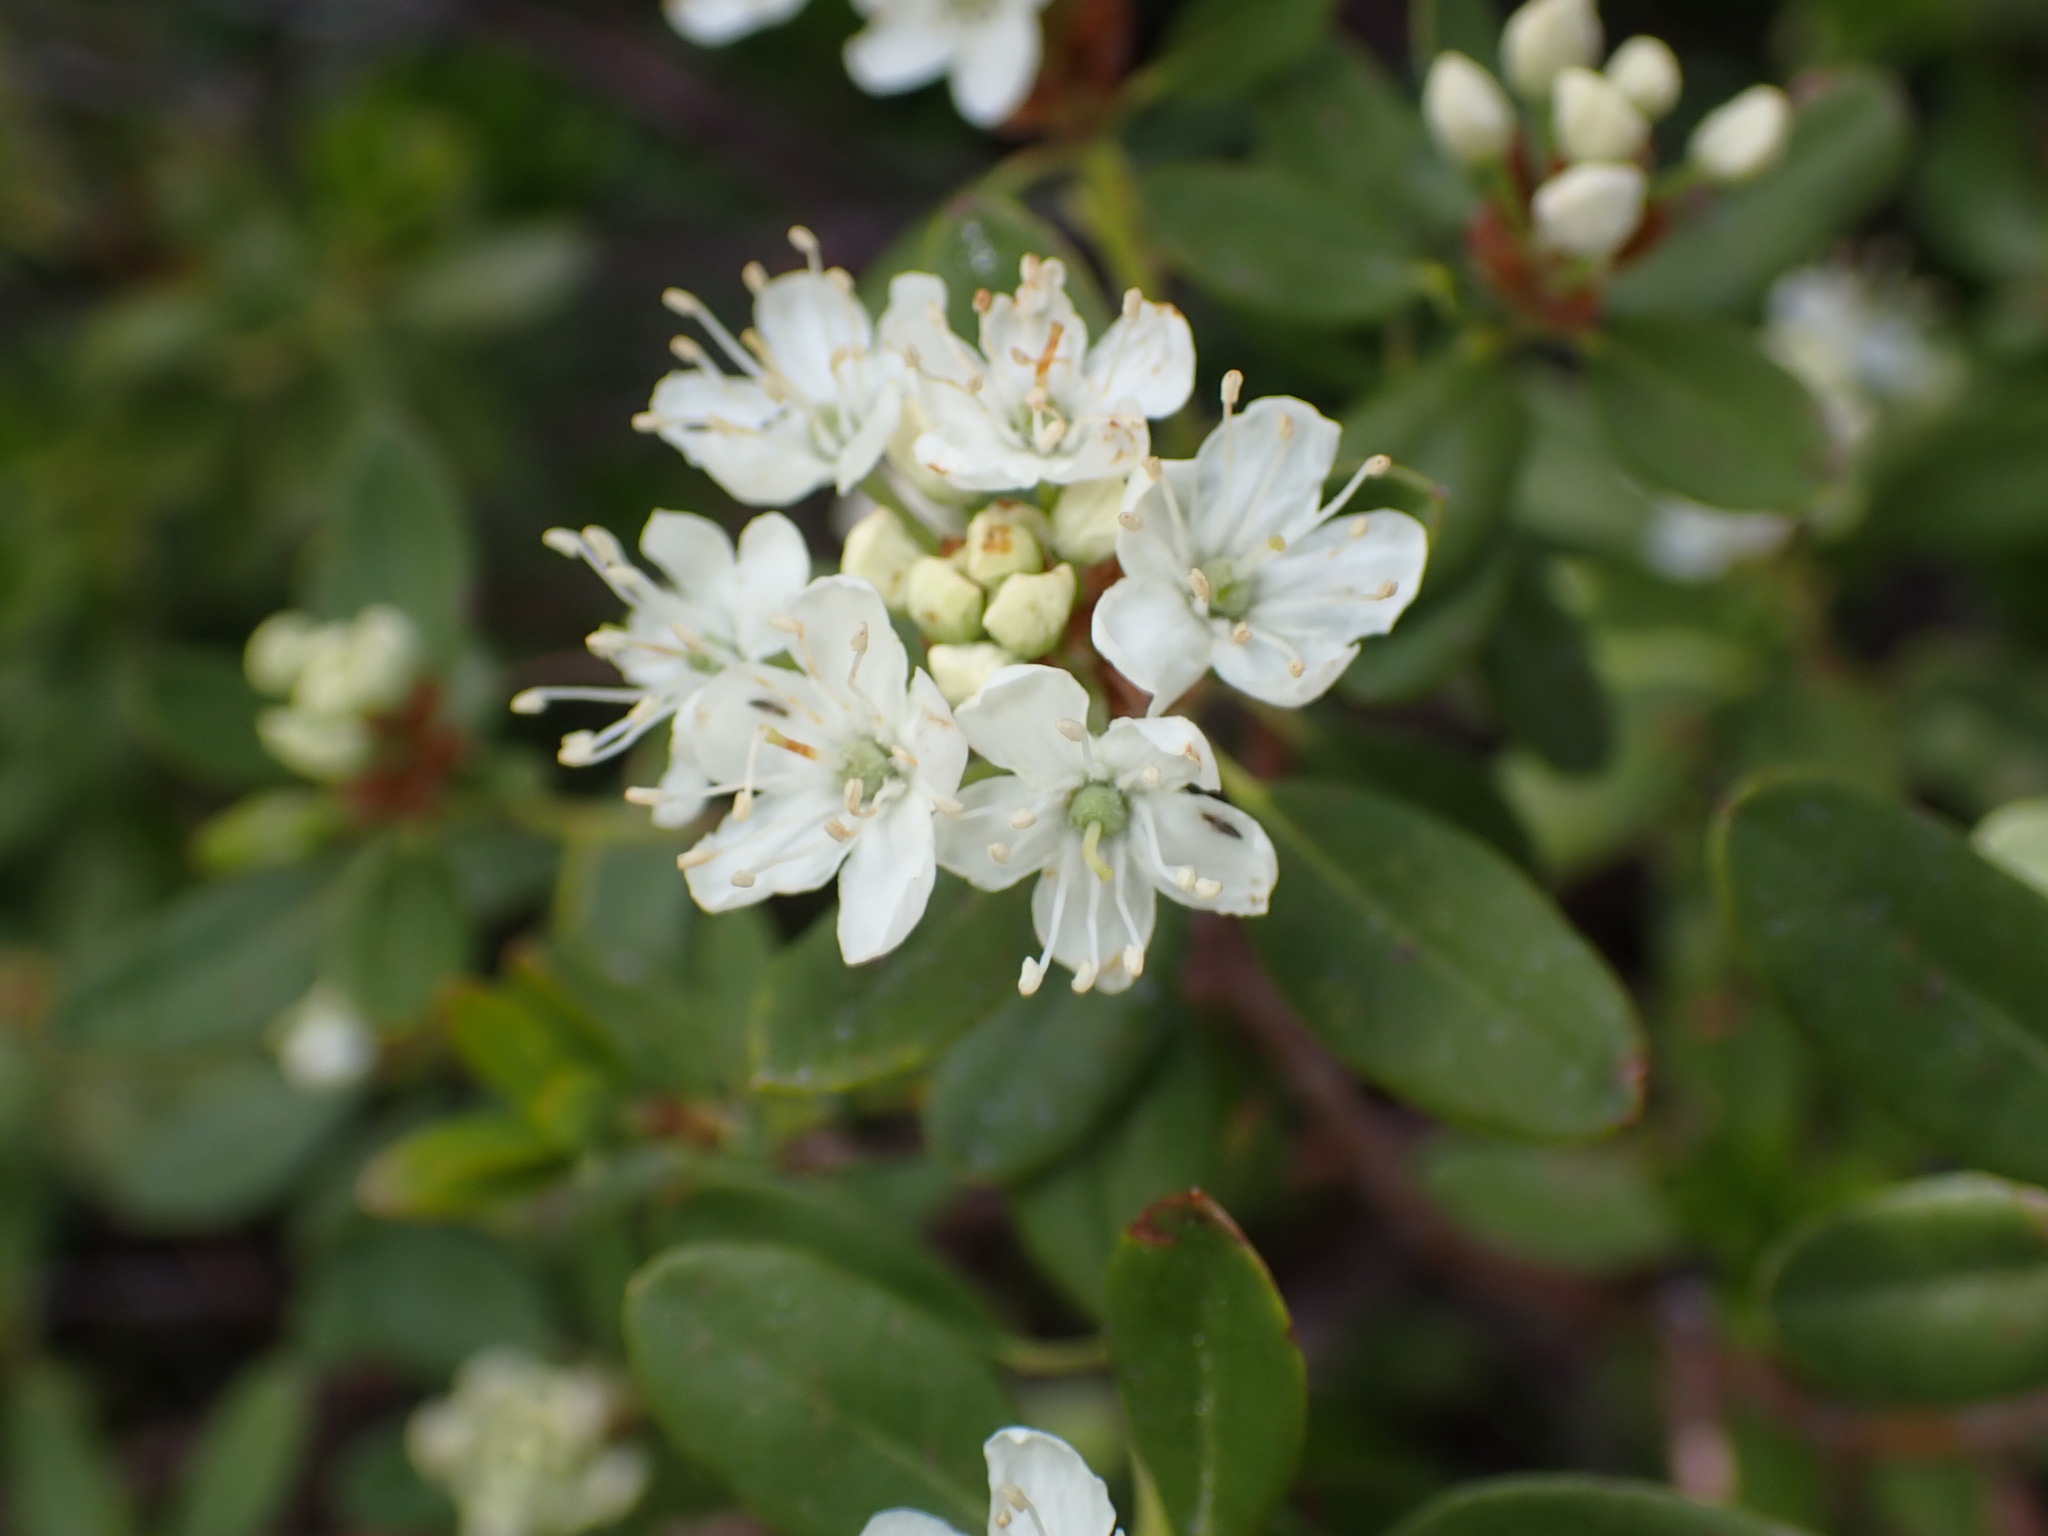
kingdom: Plantae
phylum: Tracheophyta
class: Magnoliopsida
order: Ericales
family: Ericaceae
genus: Rhododendron
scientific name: Rhododendron columbianum
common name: Western labrador tea
